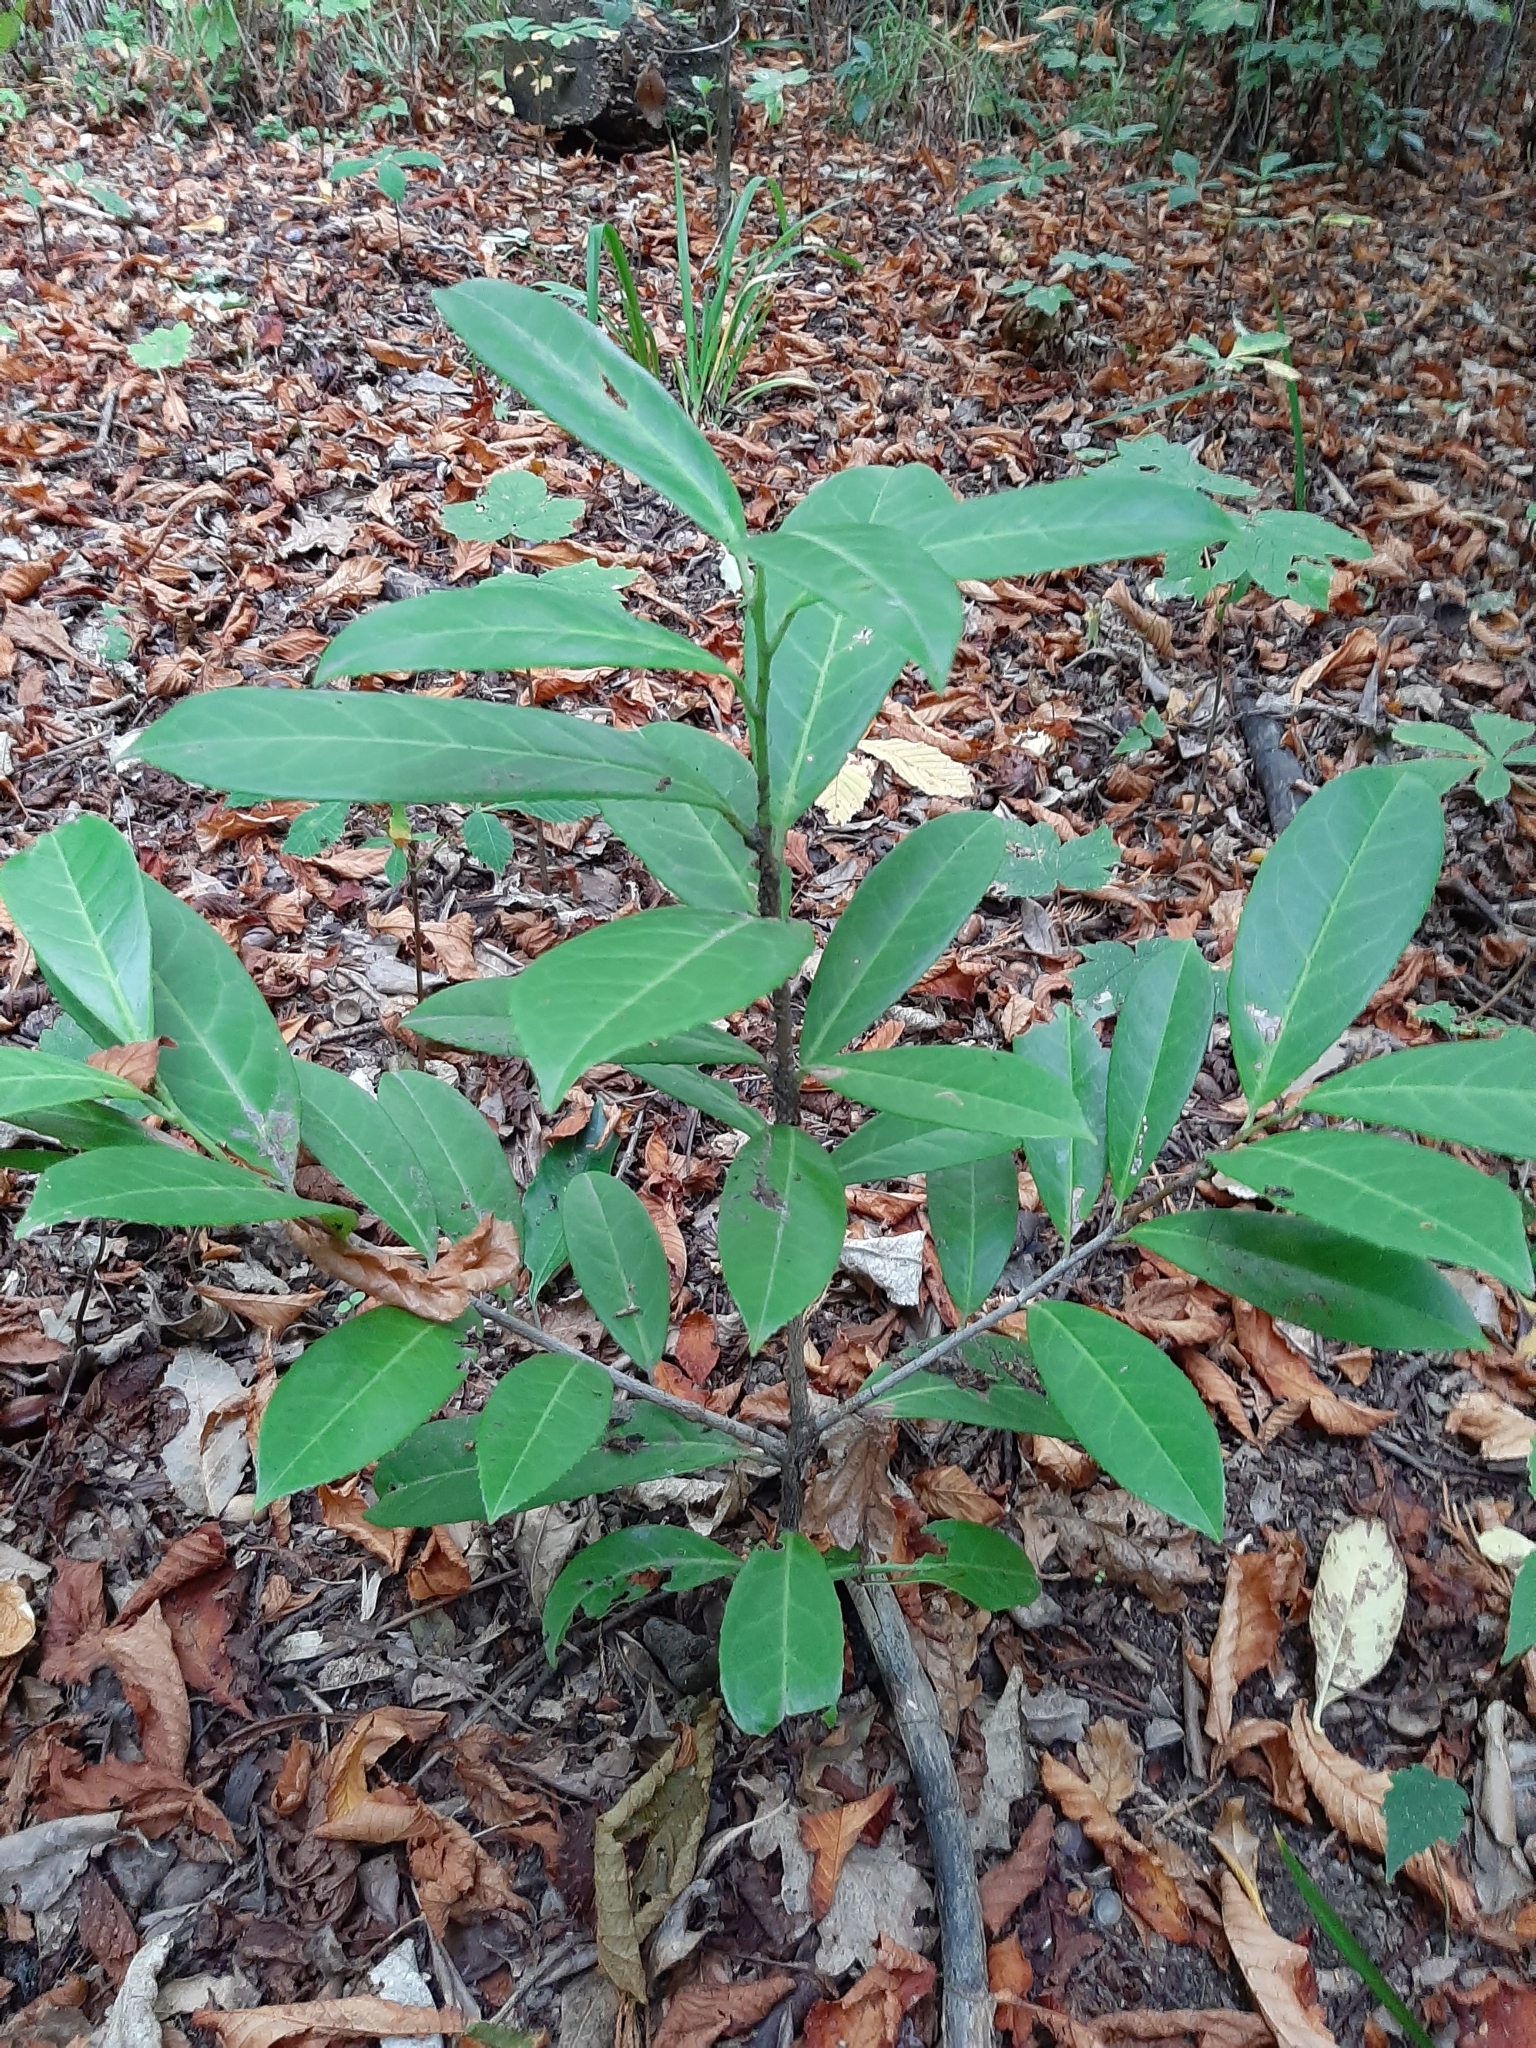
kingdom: Plantae
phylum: Tracheophyta
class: Magnoliopsida
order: Rosales
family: Rosaceae
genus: Prunus
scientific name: Prunus laurocerasus
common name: Cherry laurel
